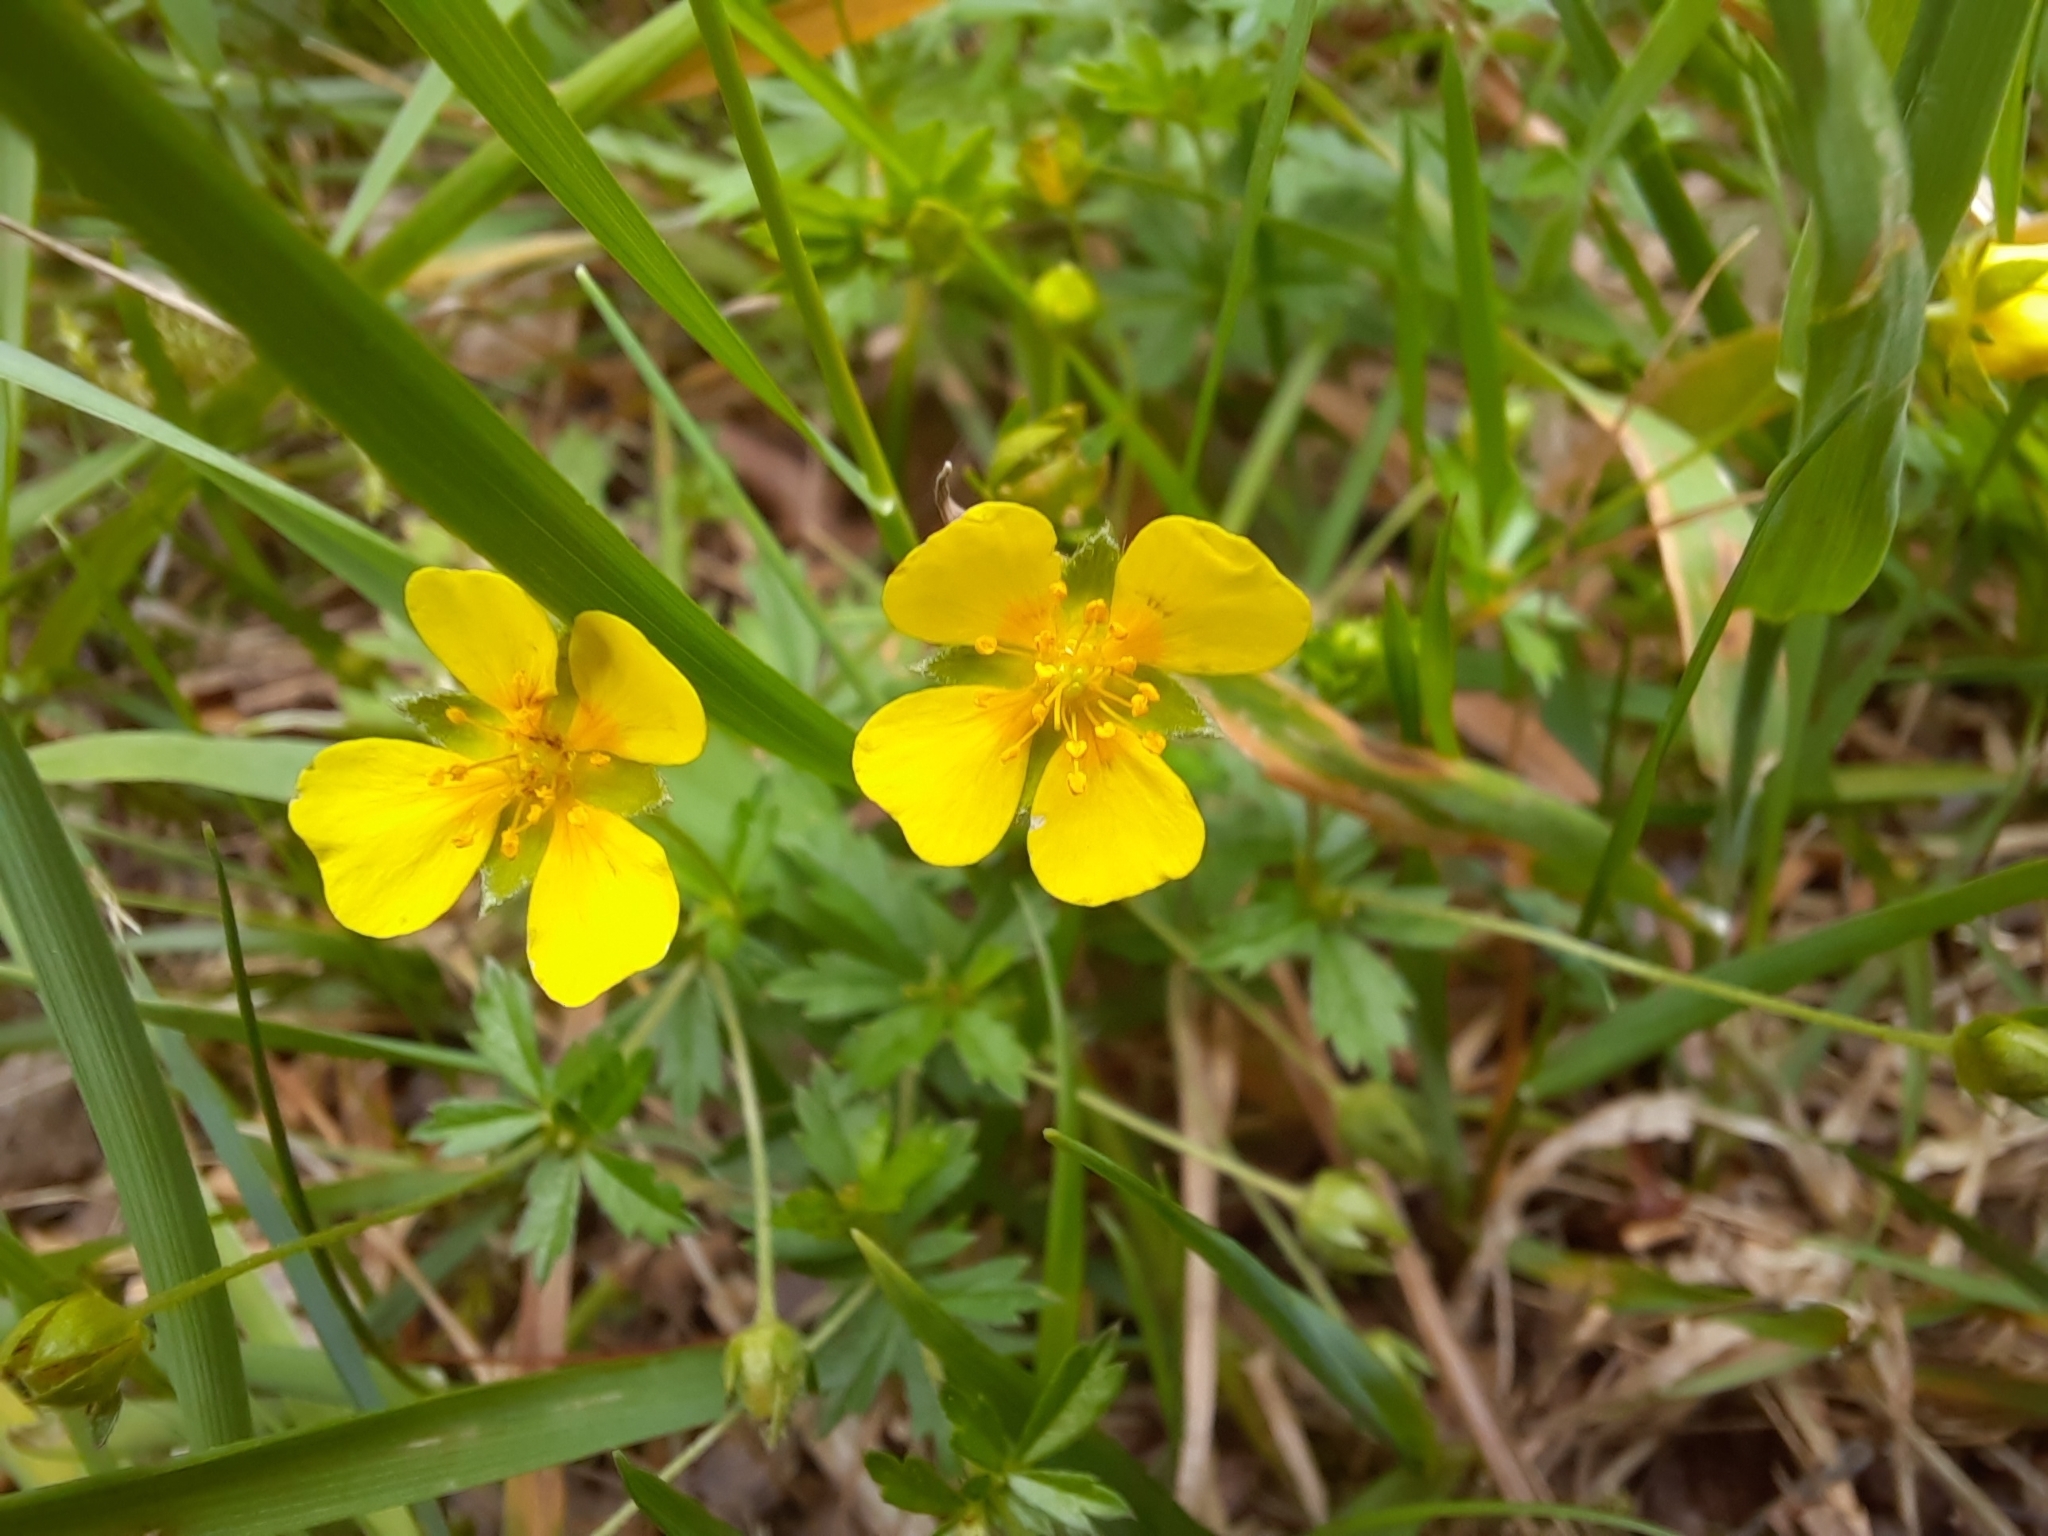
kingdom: Plantae
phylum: Tracheophyta
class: Magnoliopsida
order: Rosales
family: Rosaceae
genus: Potentilla
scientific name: Potentilla erecta
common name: Tormentil
